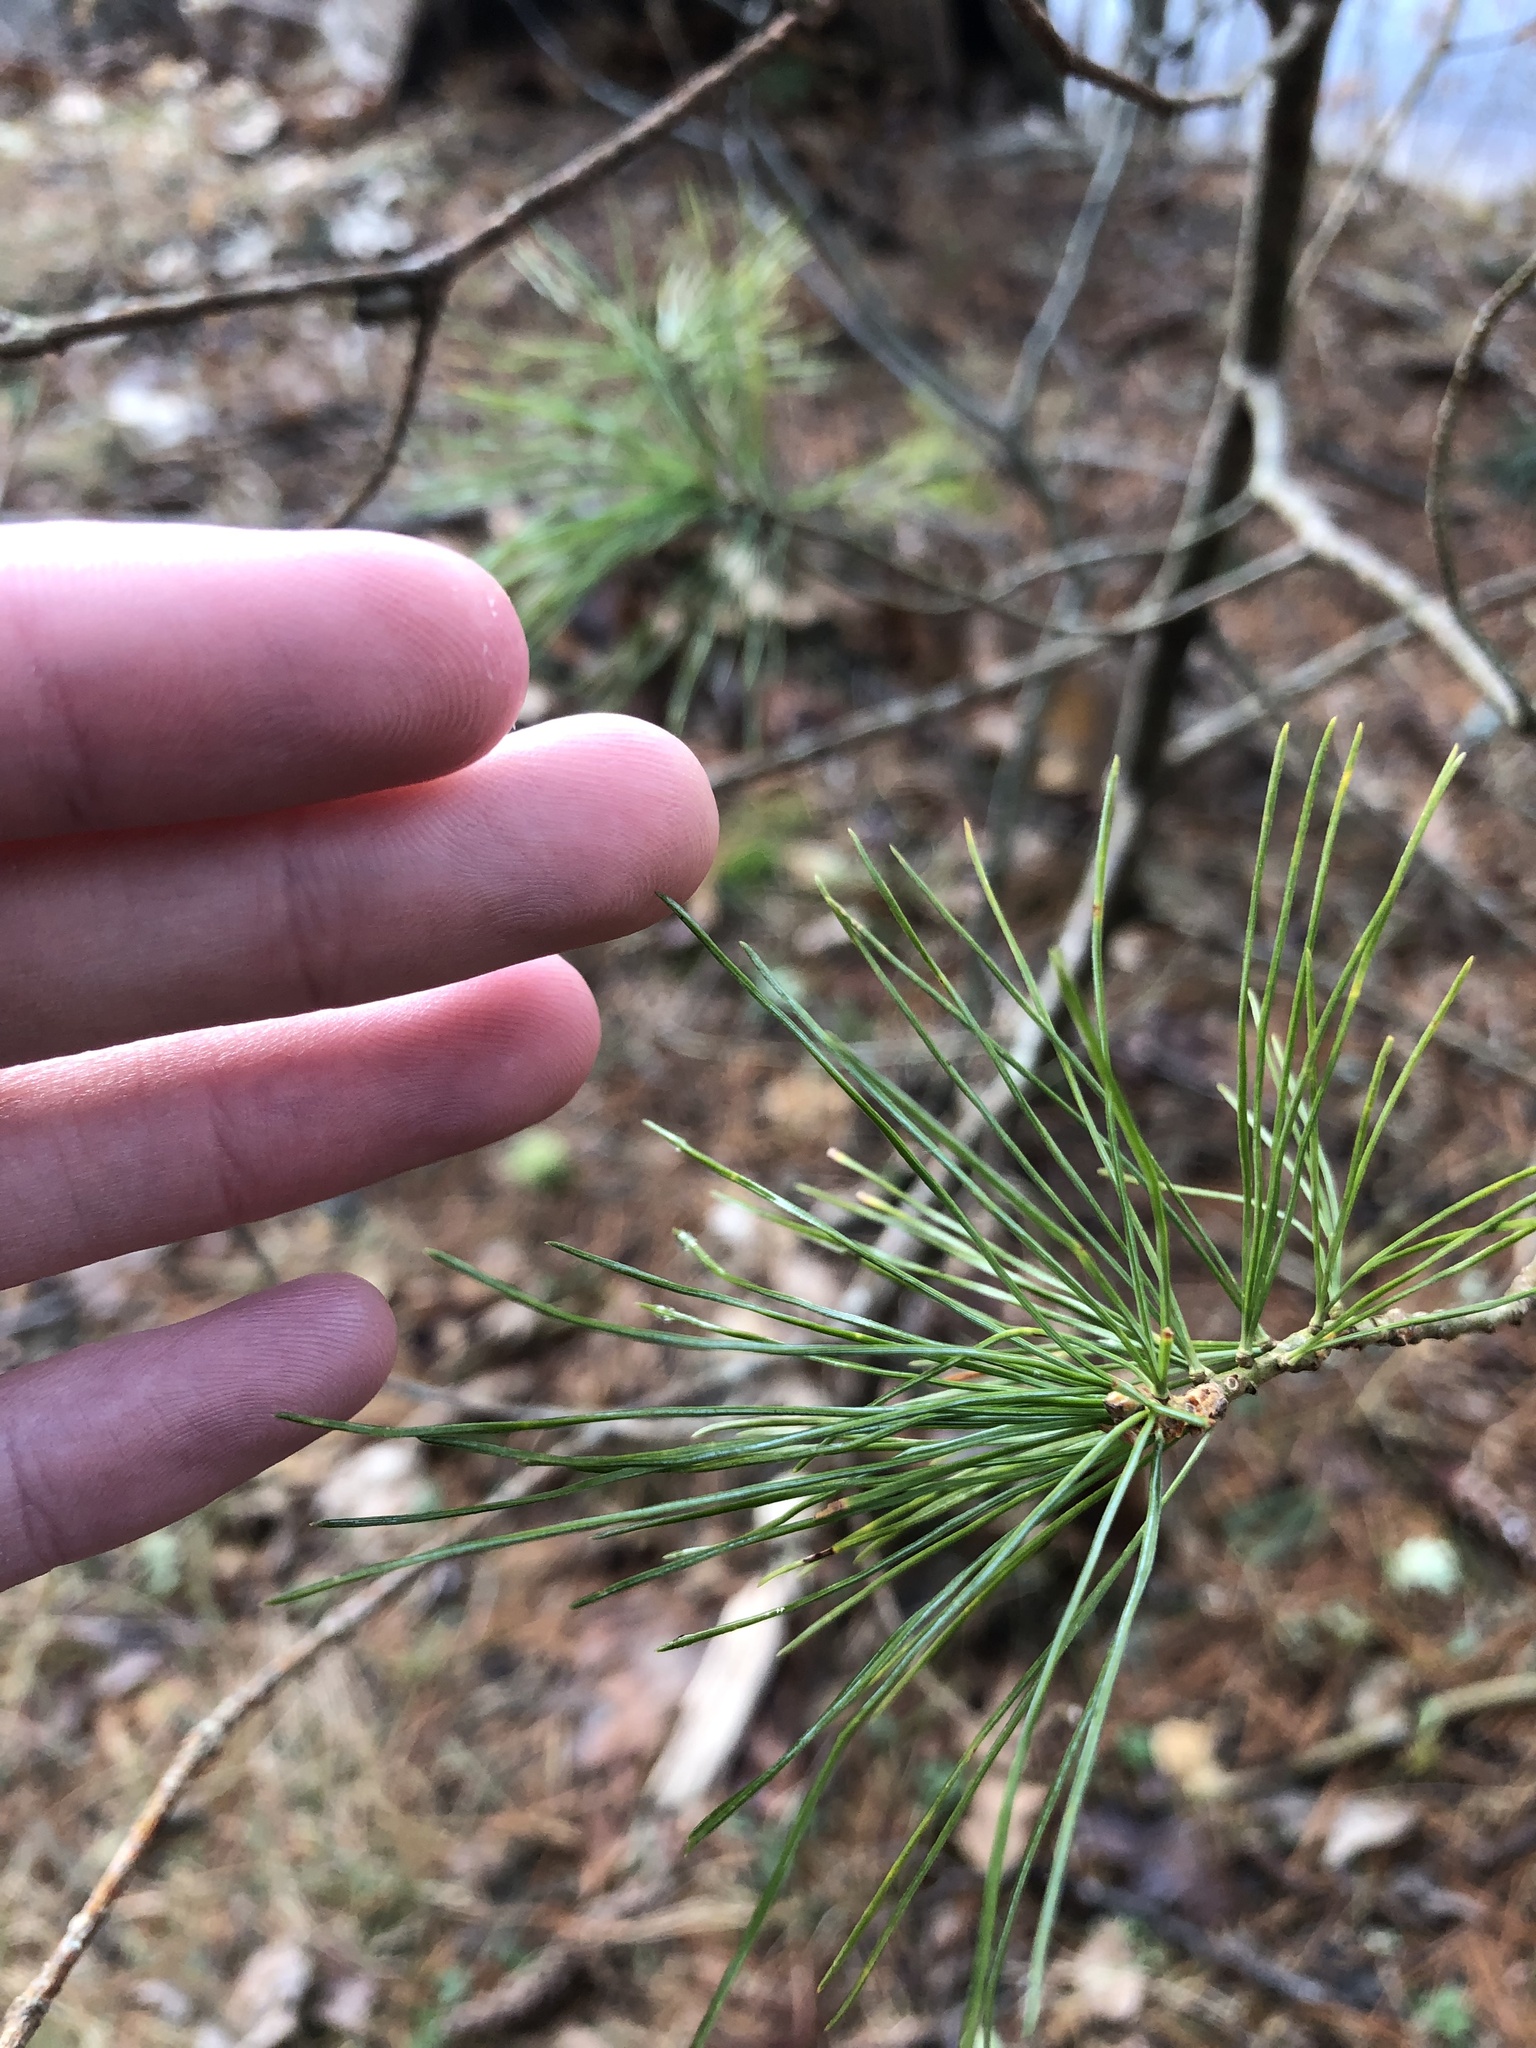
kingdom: Plantae
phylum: Tracheophyta
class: Pinopsida
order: Pinales
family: Pinaceae
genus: Pinus
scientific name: Pinus strobus
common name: Weymouth pine
